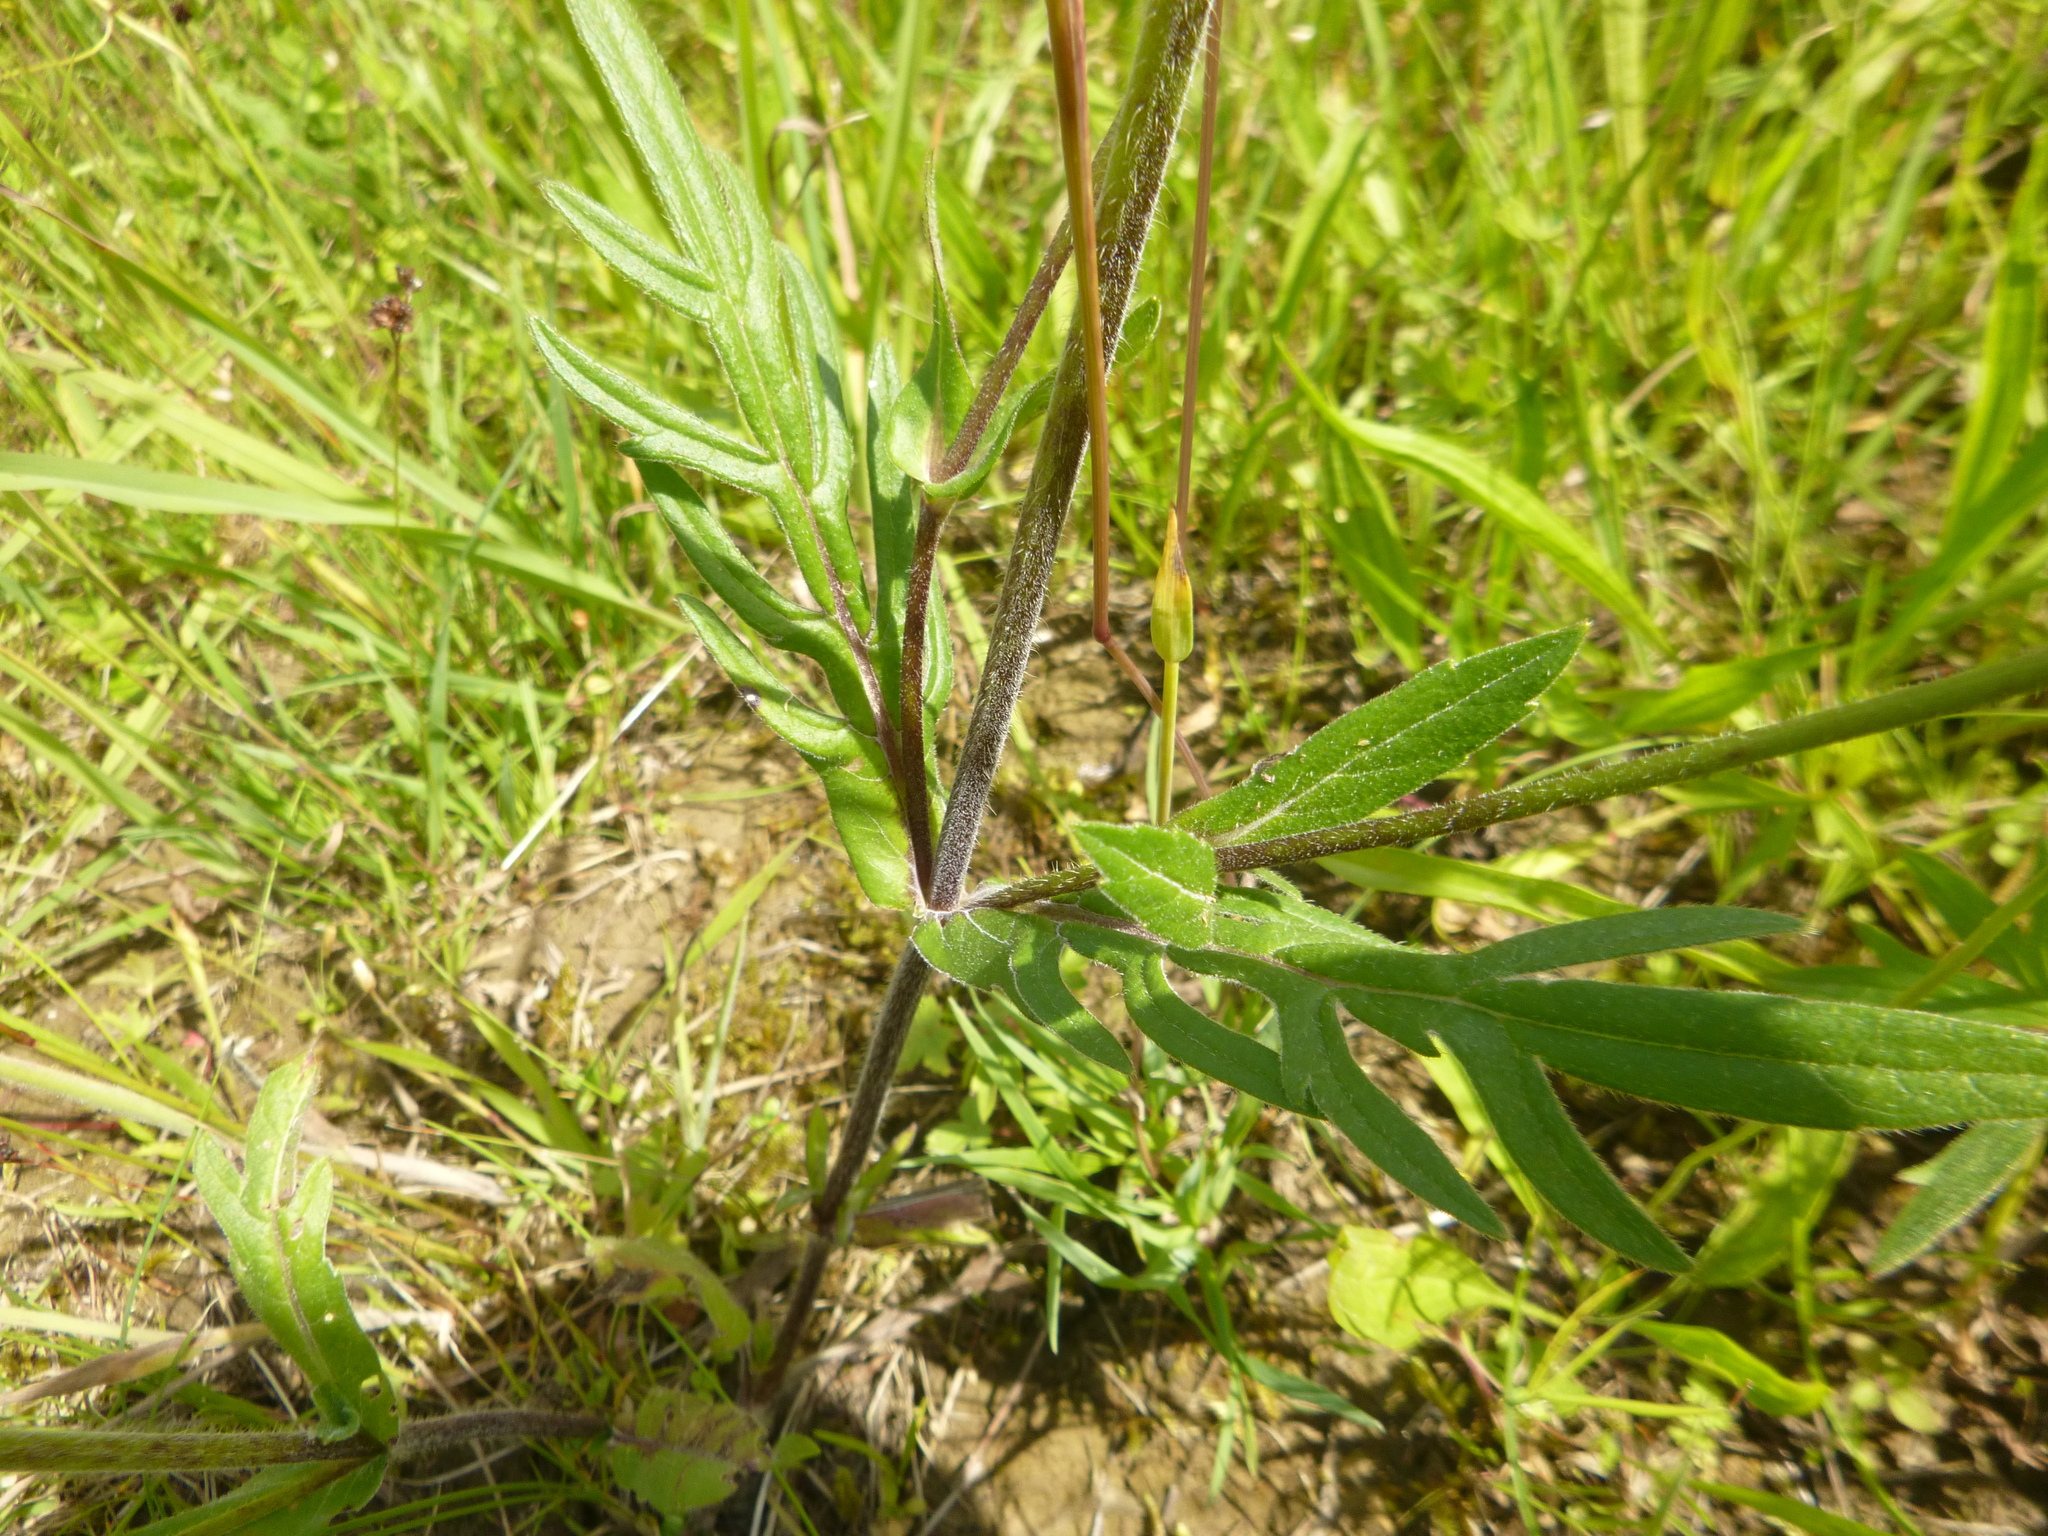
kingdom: Plantae
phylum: Tracheophyta
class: Magnoliopsida
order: Dipsacales
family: Caprifoliaceae
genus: Knautia
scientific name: Knautia arvensis
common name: Field scabiosa
